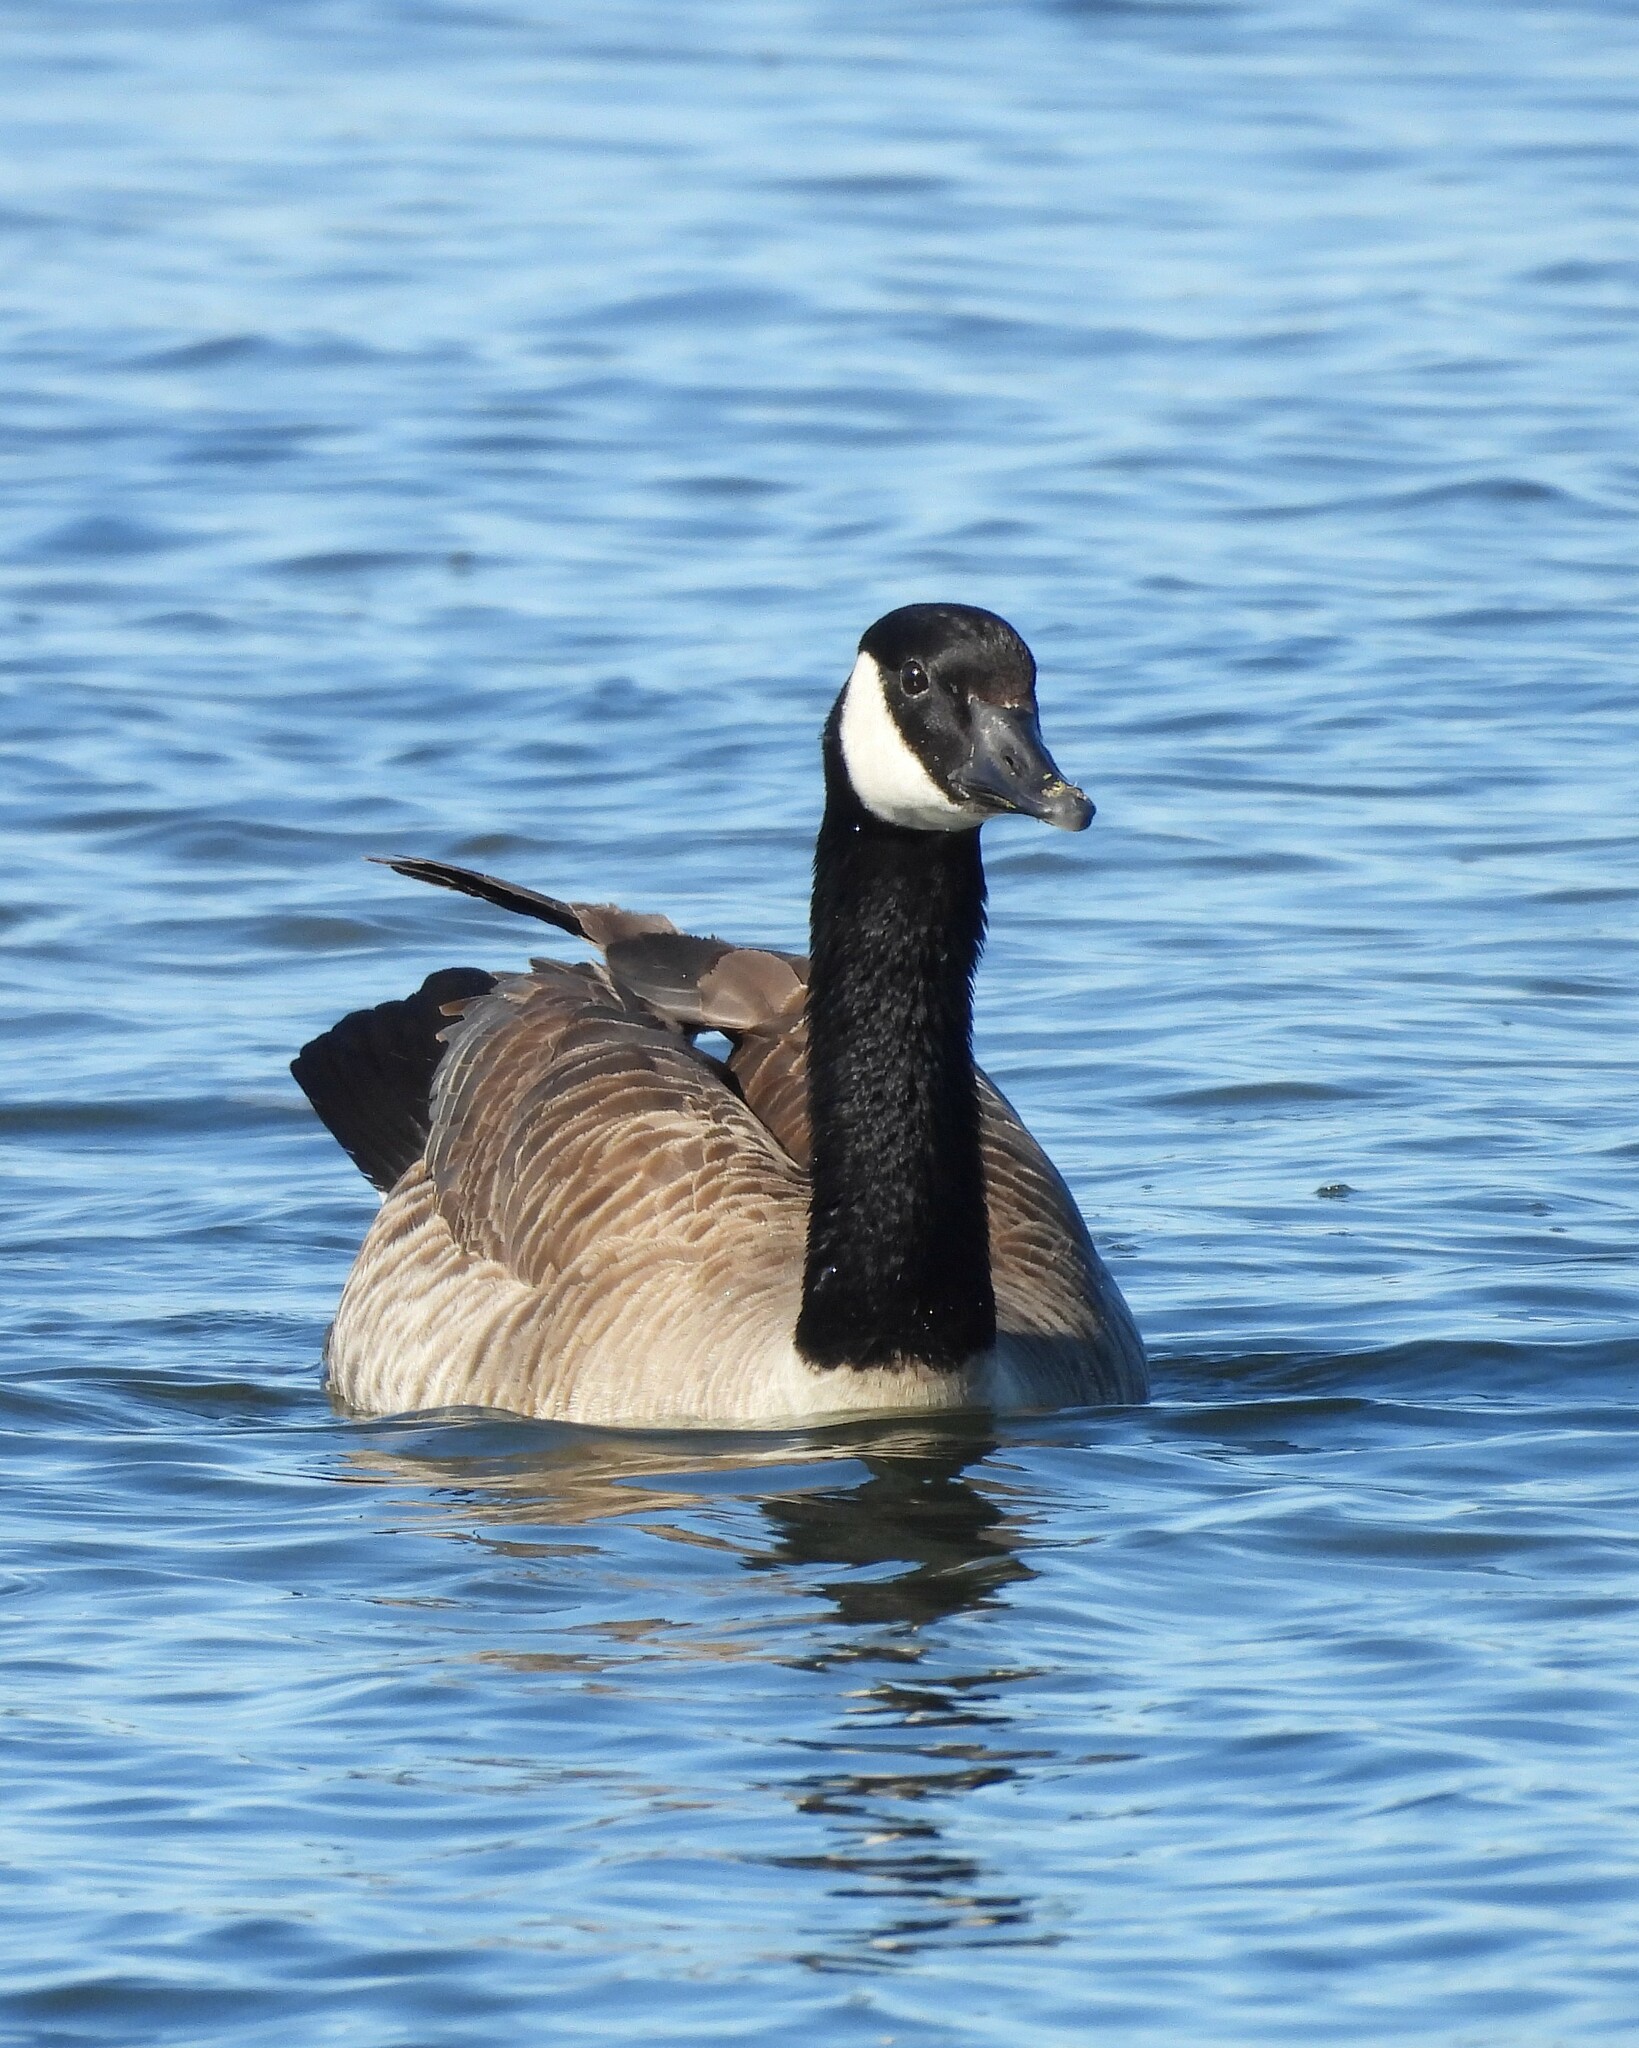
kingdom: Animalia
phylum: Chordata
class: Aves
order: Anseriformes
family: Anatidae
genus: Branta
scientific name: Branta canadensis
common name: Canada goose
